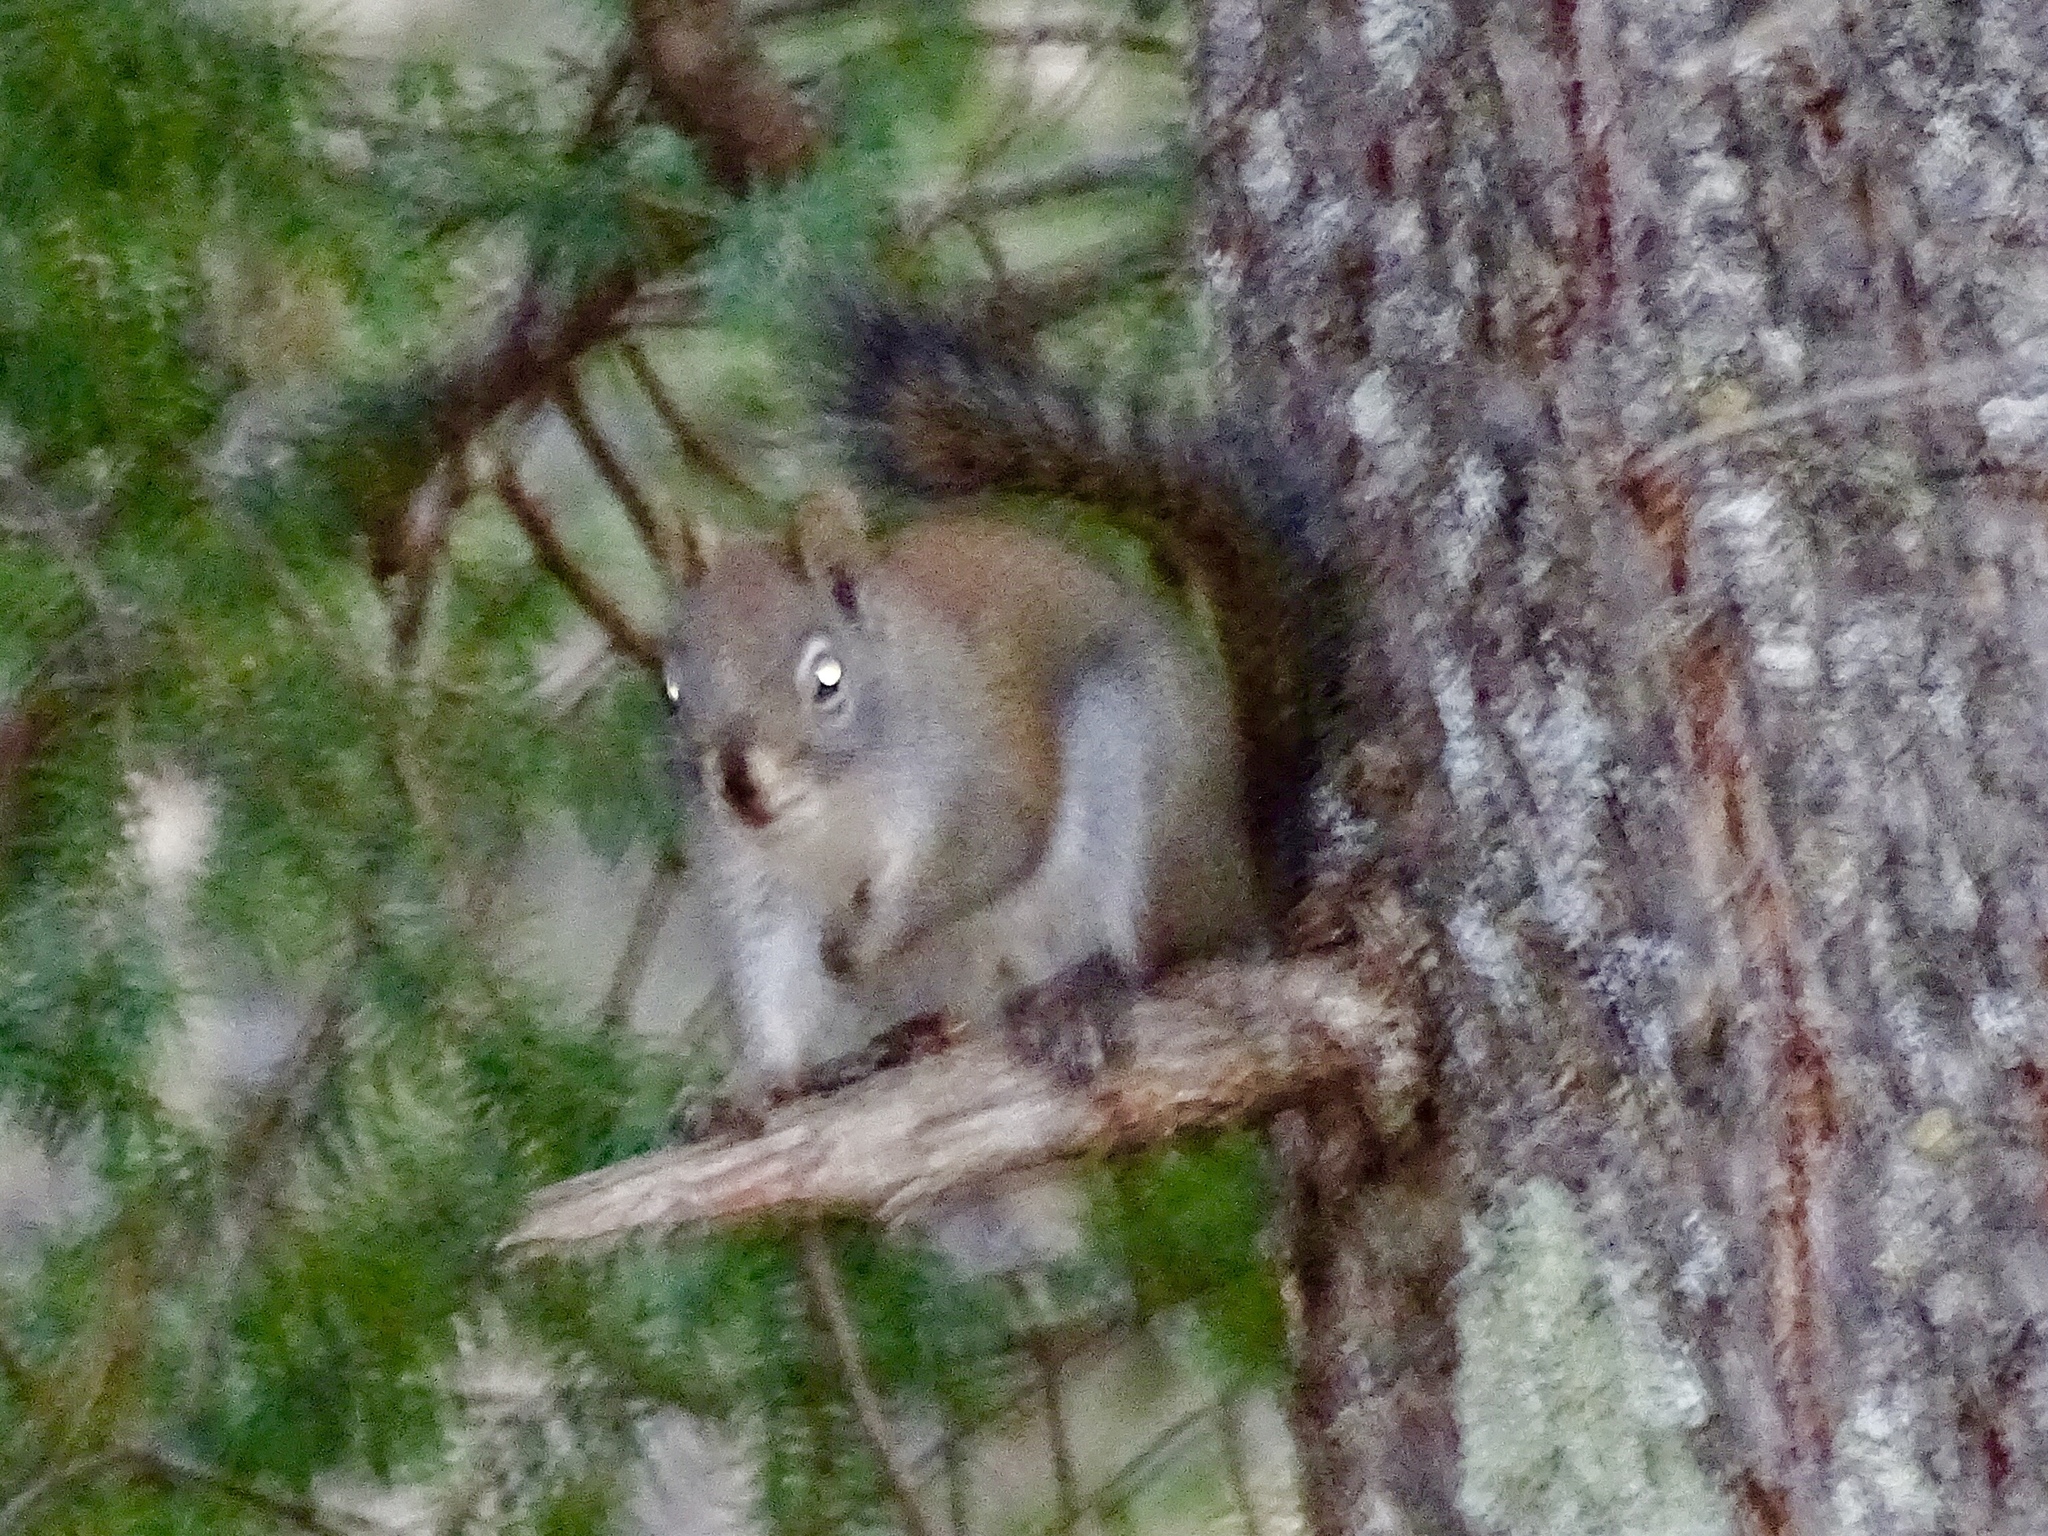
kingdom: Animalia
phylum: Chordata
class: Mammalia
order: Rodentia
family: Sciuridae
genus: Tamiasciurus
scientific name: Tamiasciurus hudsonicus
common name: Red squirrel
